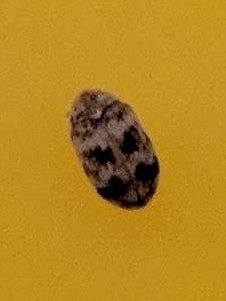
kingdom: Animalia
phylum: Arthropoda
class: Insecta
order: Coleoptera
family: Dermestidae
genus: Anthrenus
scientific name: Anthrenus coloratus
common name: Auger beetle
